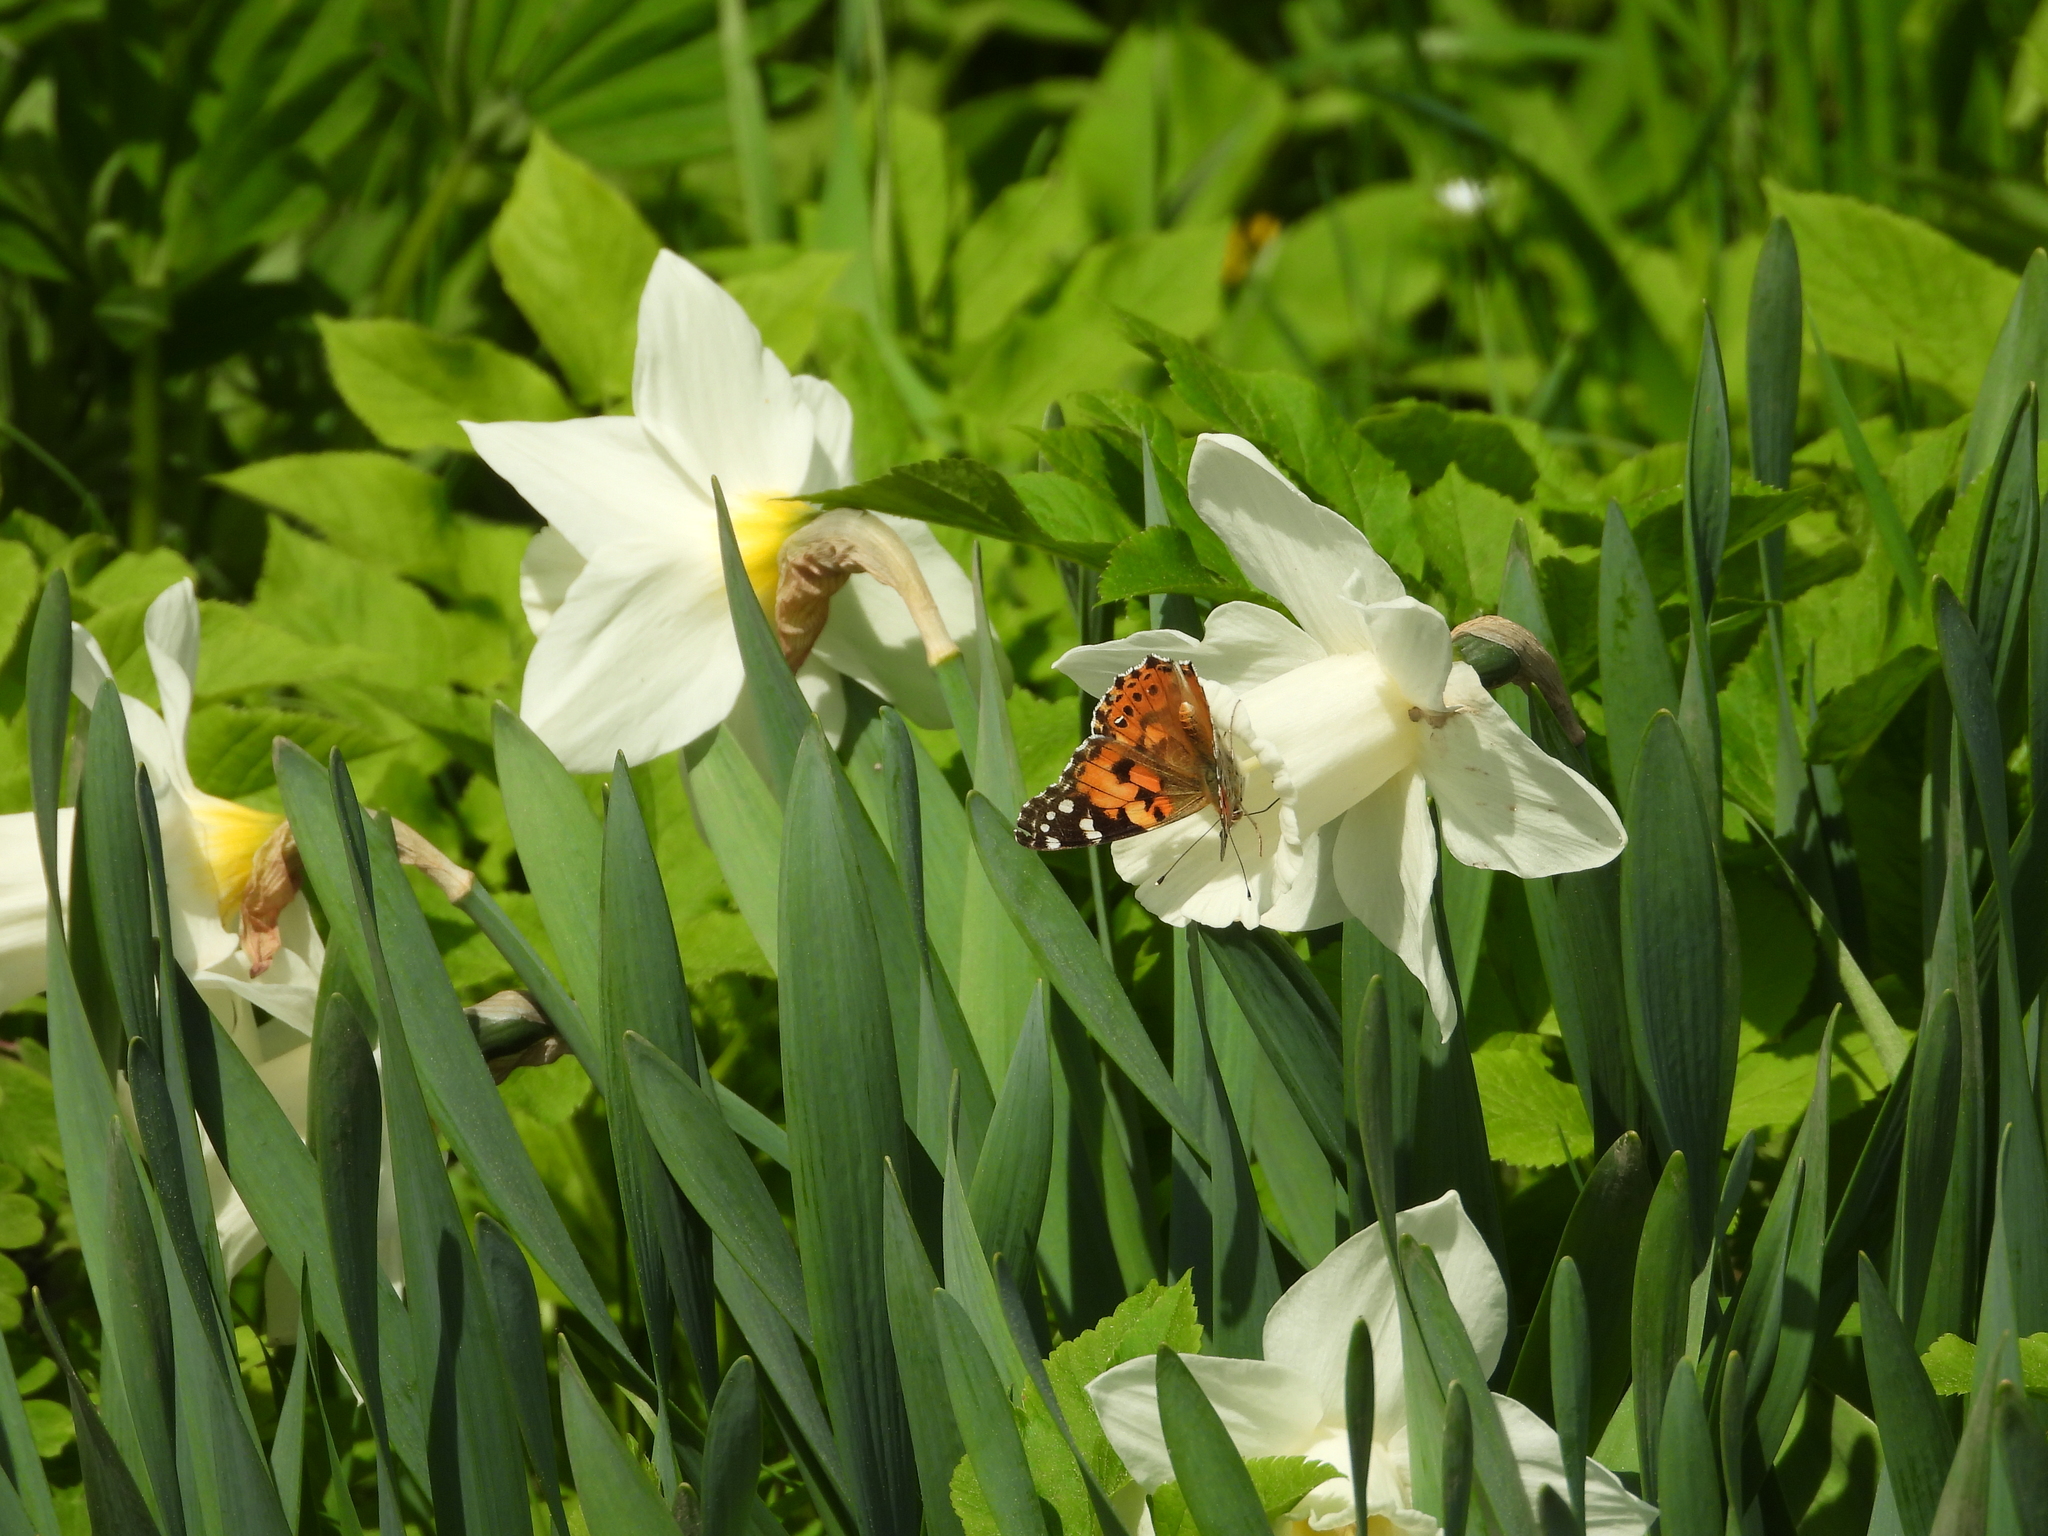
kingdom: Animalia
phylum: Arthropoda
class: Insecta
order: Lepidoptera
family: Nymphalidae
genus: Vanessa
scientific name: Vanessa cardui
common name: Painted lady
